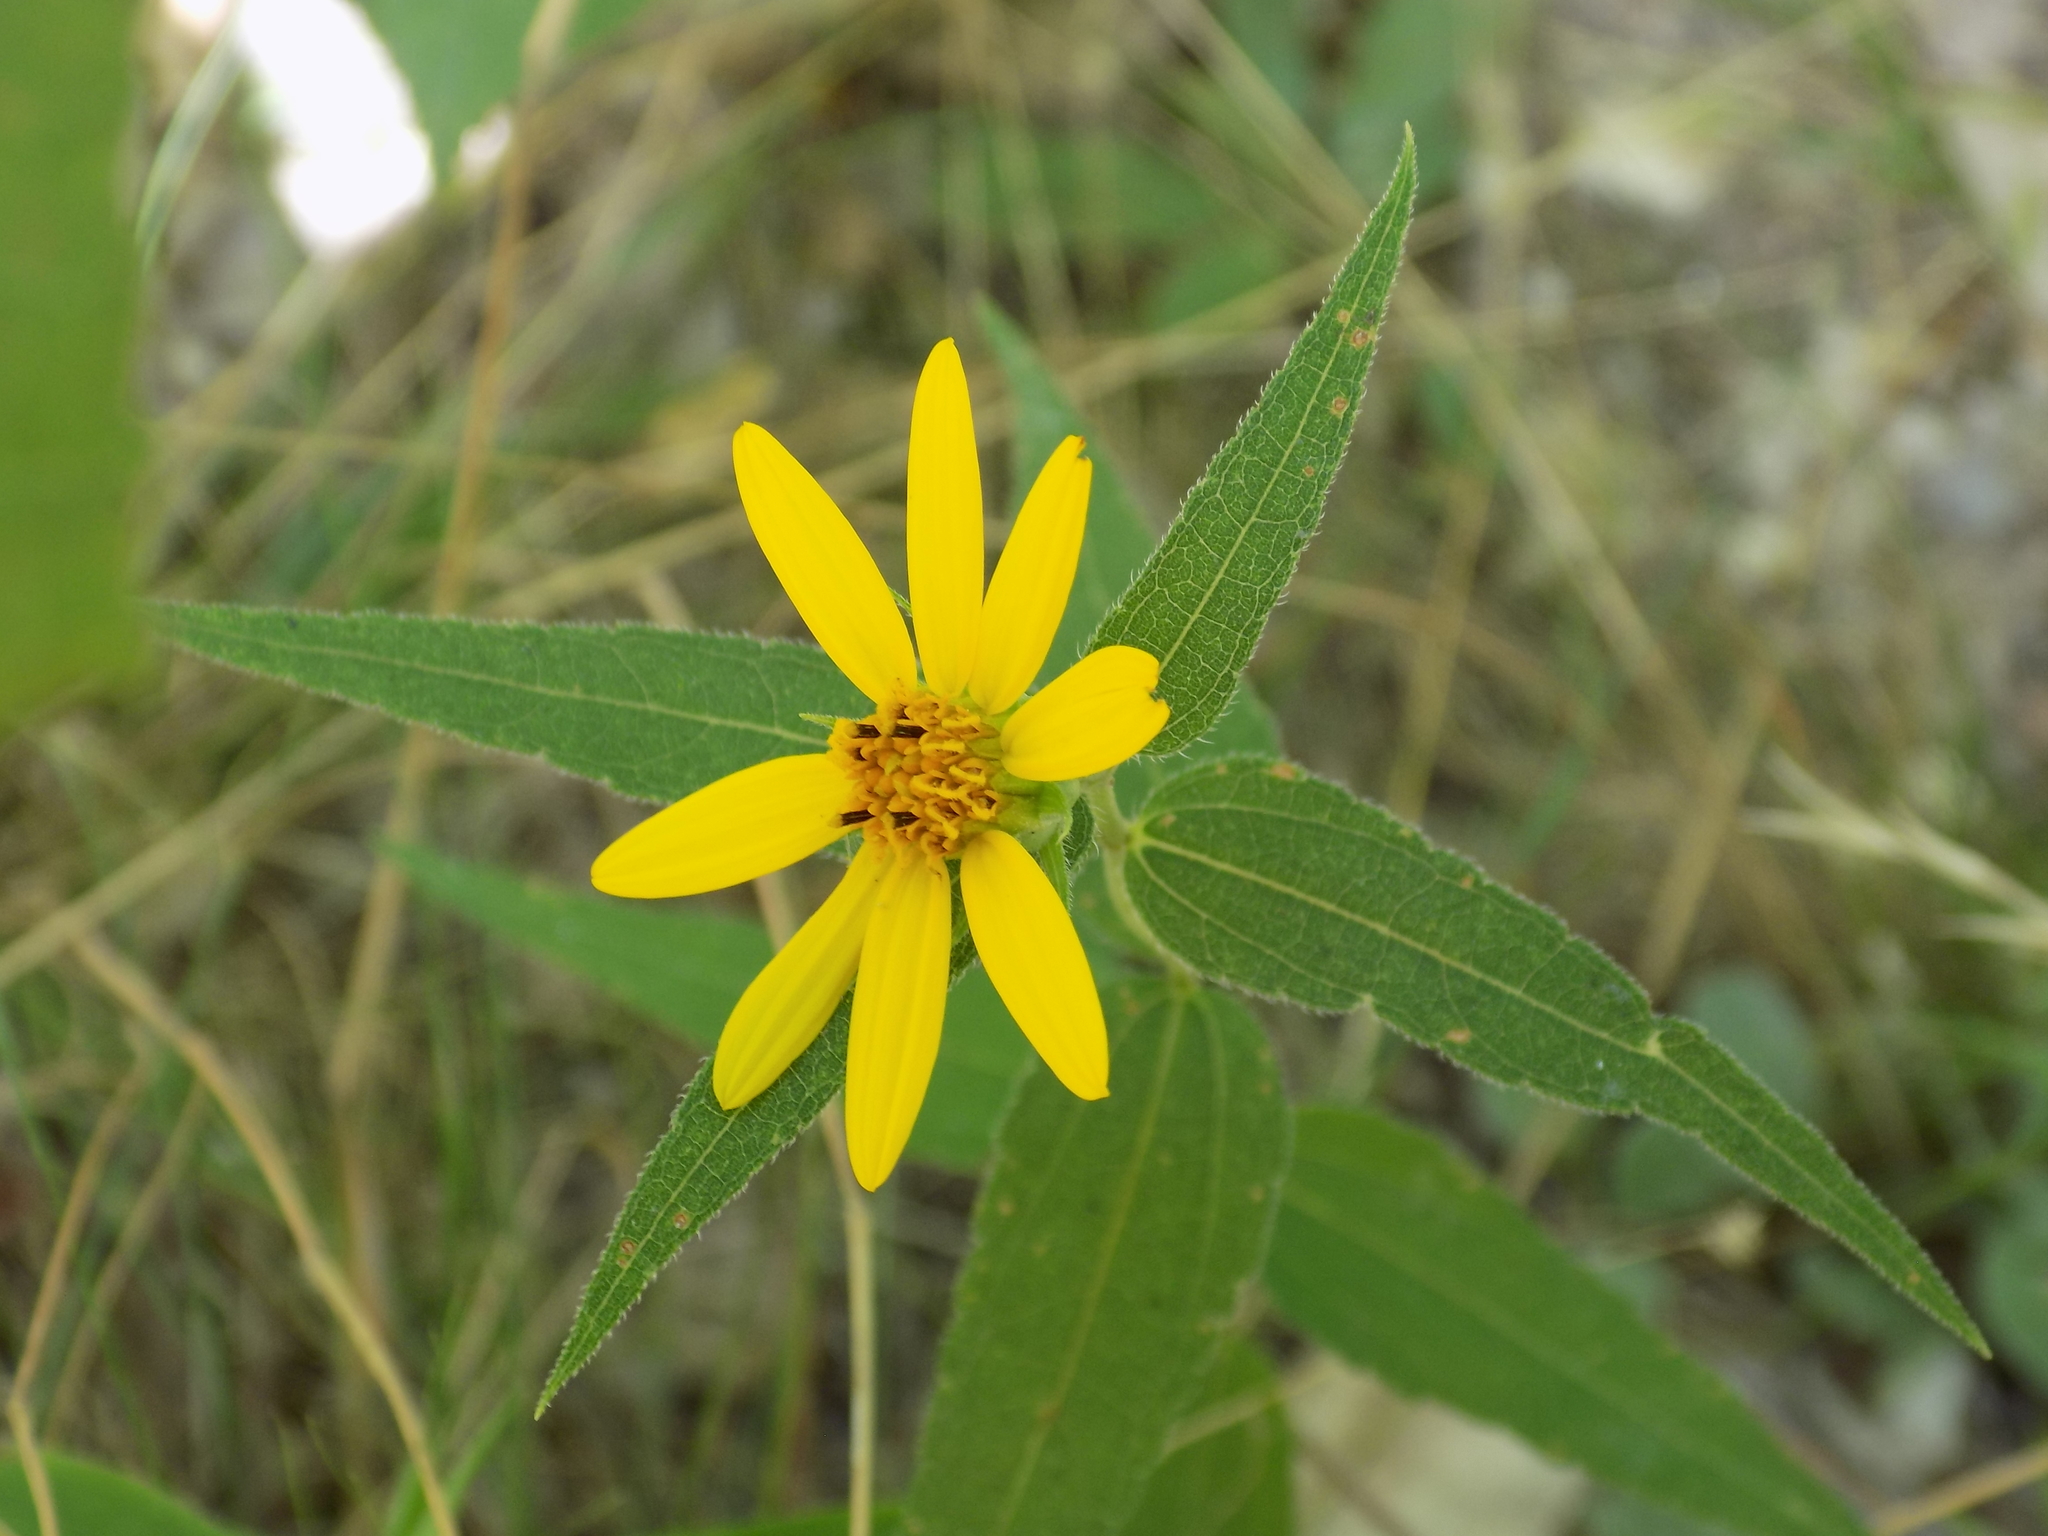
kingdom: Plantae
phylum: Tracheophyta
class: Magnoliopsida
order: Asterales
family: Asteraceae
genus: Helianthus
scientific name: Helianthus divaricatus
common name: Divergent sunflower
